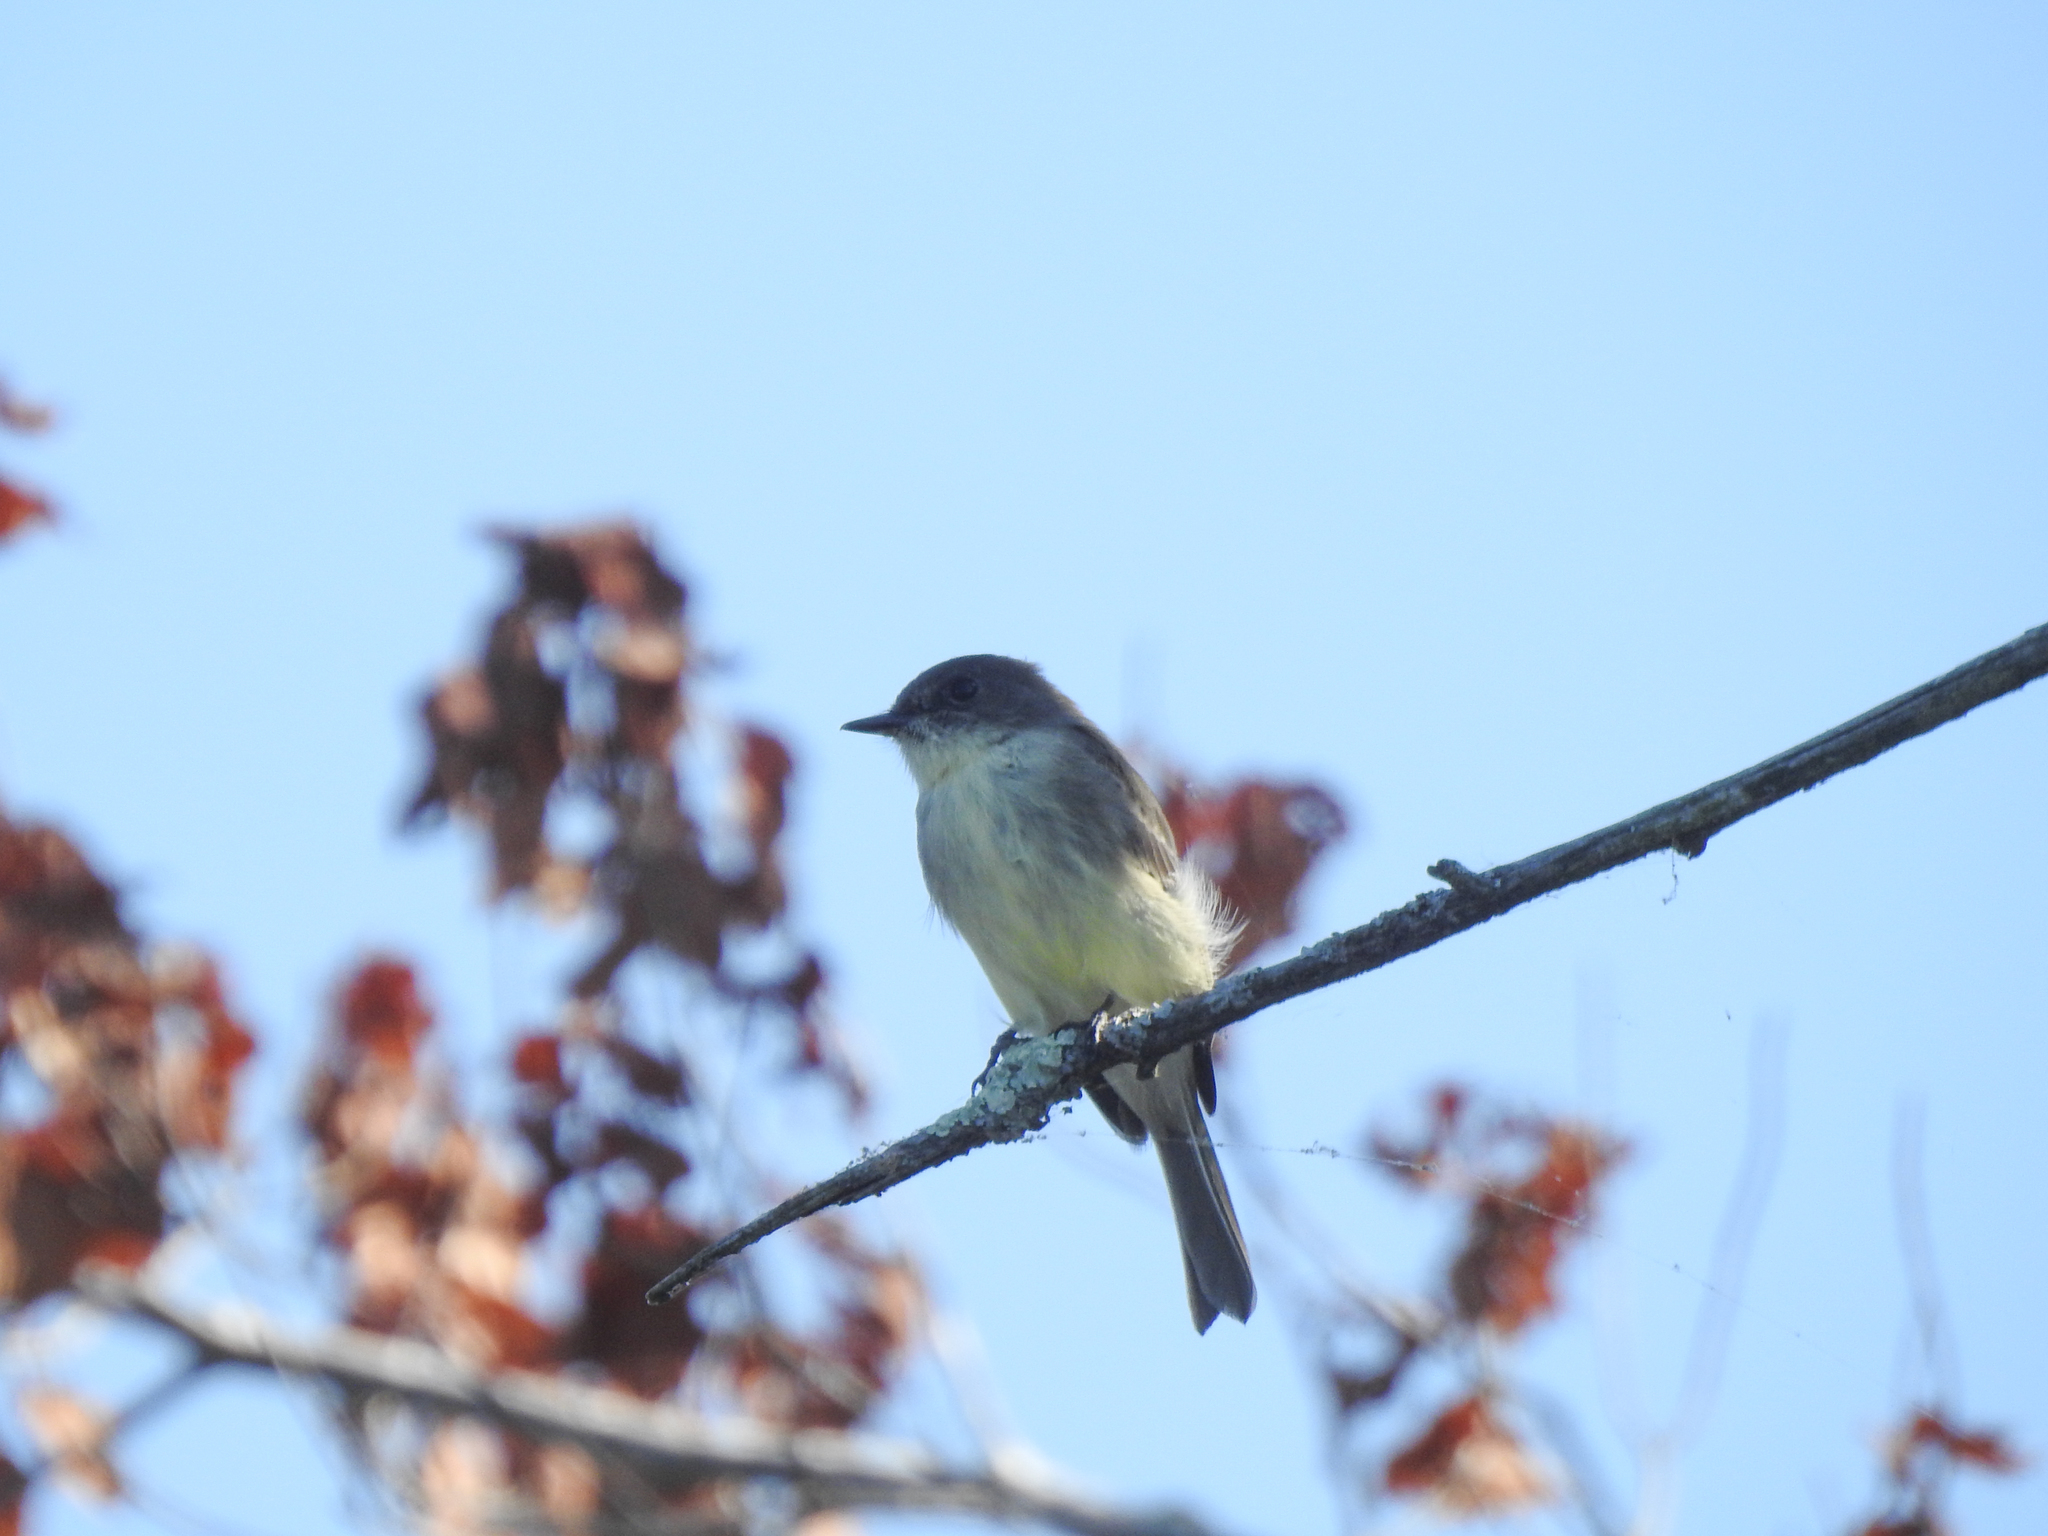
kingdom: Animalia
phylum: Chordata
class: Aves
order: Passeriformes
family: Tyrannidae
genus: Sayornis
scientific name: Sayornis phoebe
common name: Eastern phoebe
